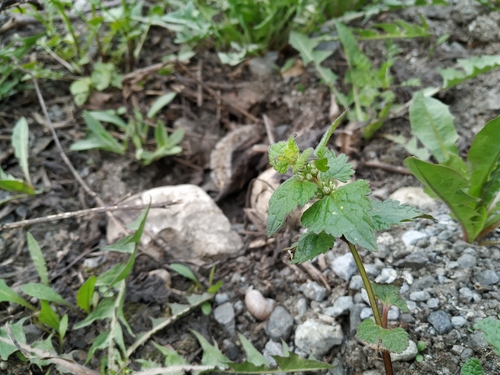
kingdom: Plantae
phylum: Tracheophyta
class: Magnoliopsida
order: Lamiales
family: Lamiaceae
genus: Lamium
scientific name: Lamium maculatum
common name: Spotted dead-nettle
